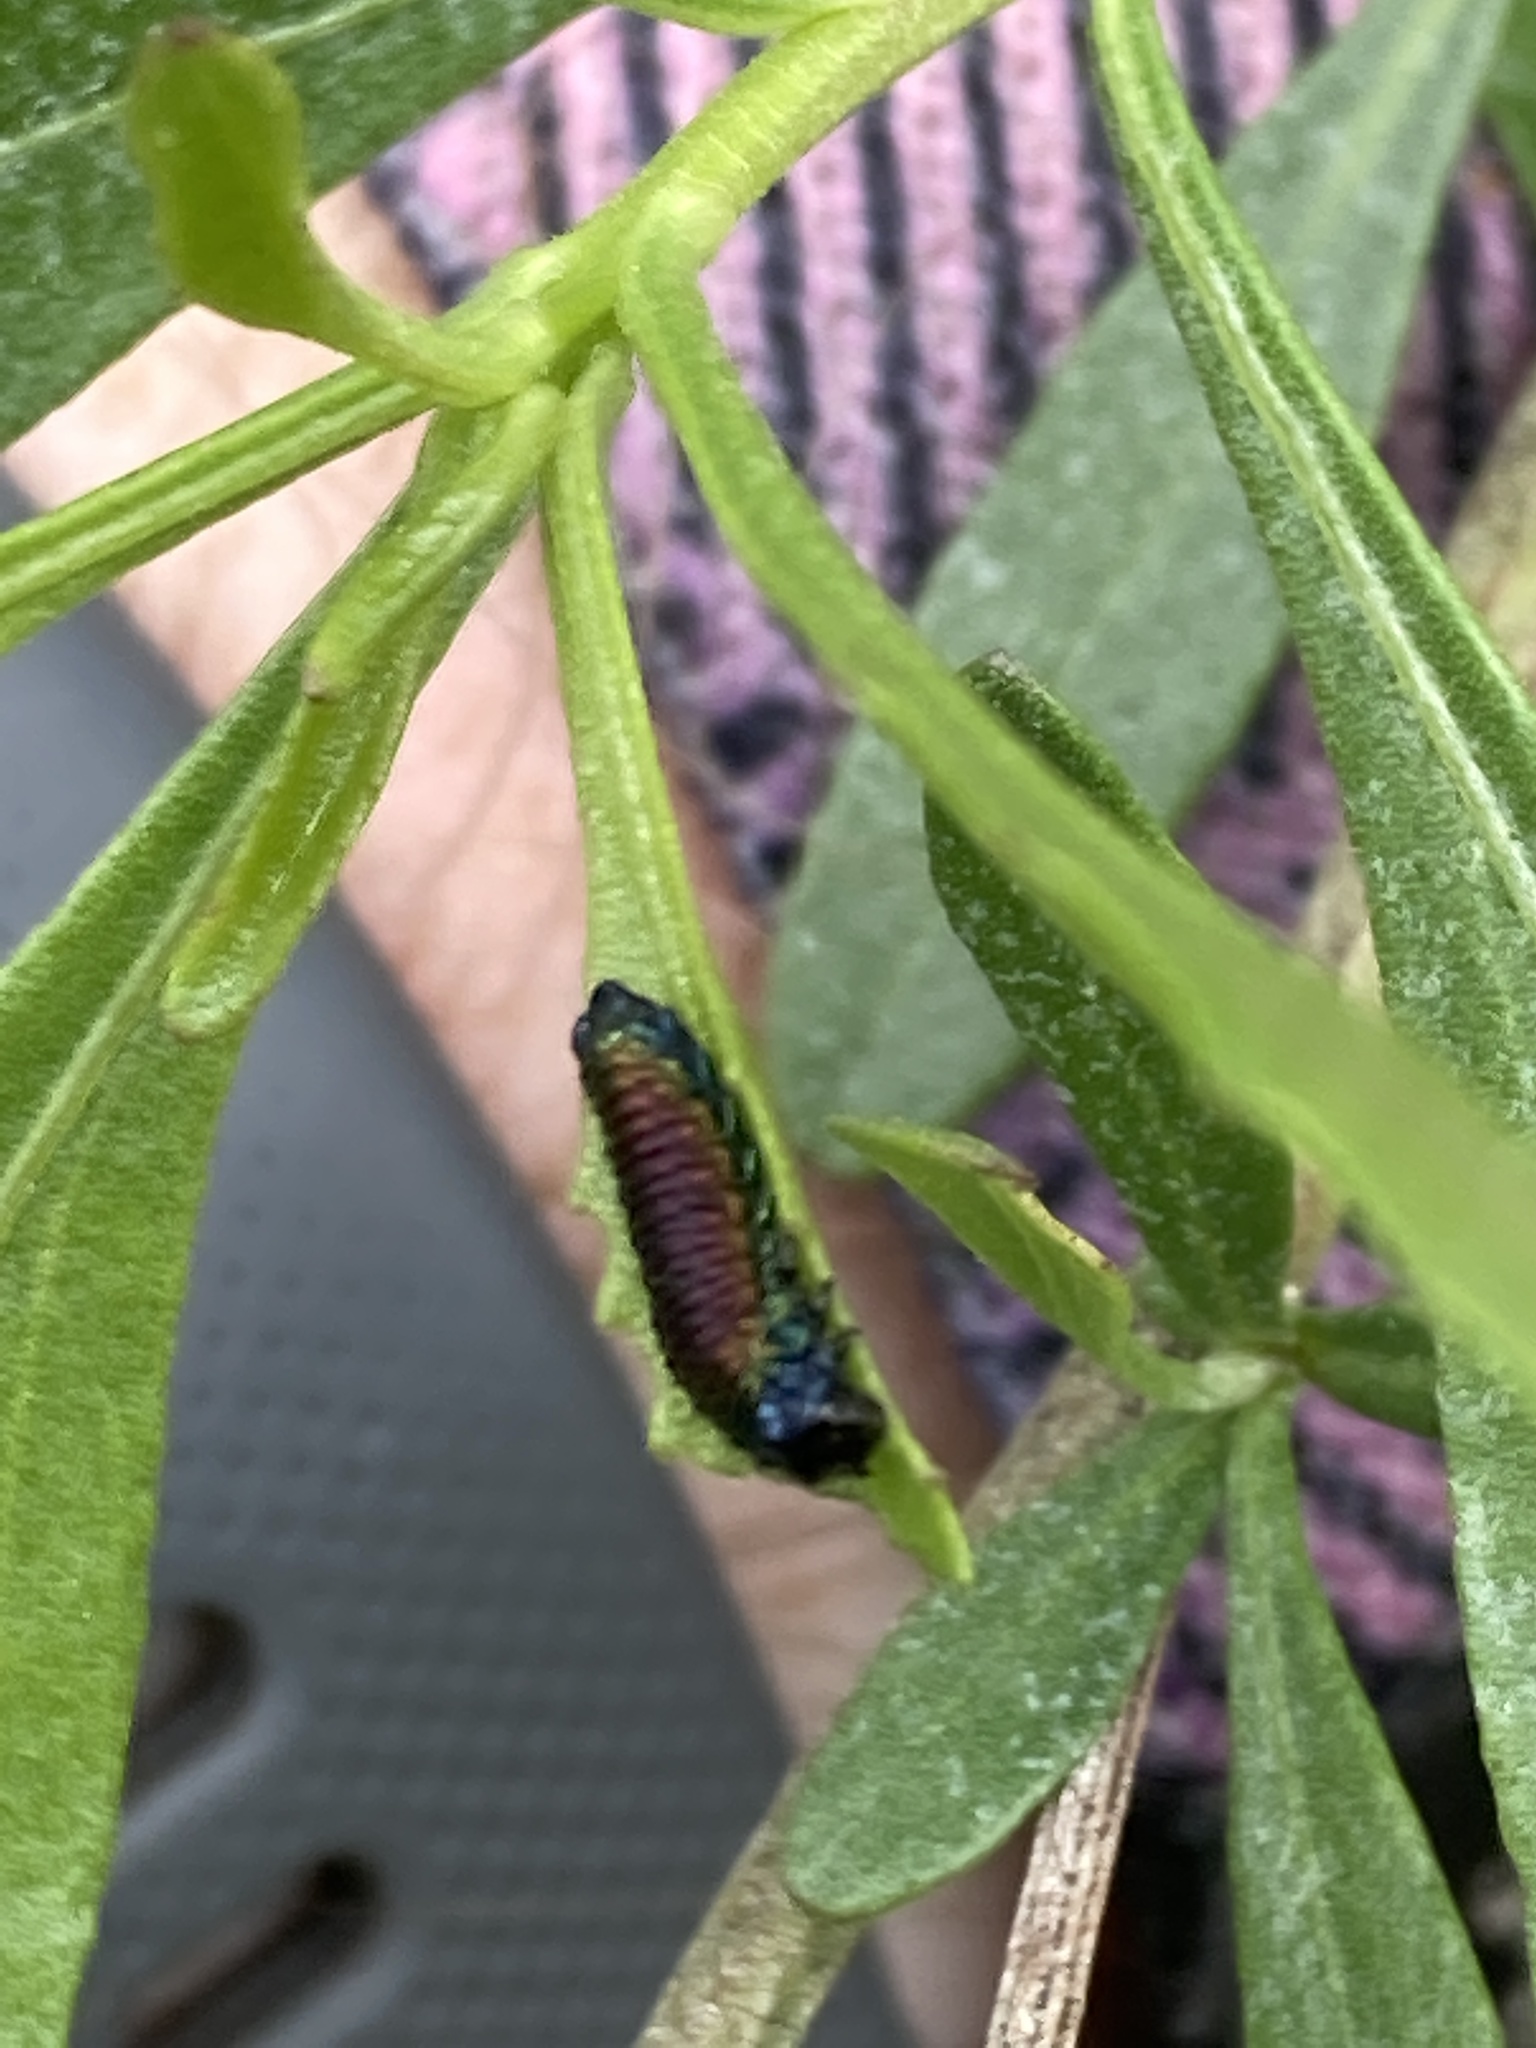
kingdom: Animalia
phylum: Arthropoda
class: Insecta
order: Coleoptera
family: Chrysomelidae
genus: Trirhabda
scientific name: Trirhabda bacharidis
